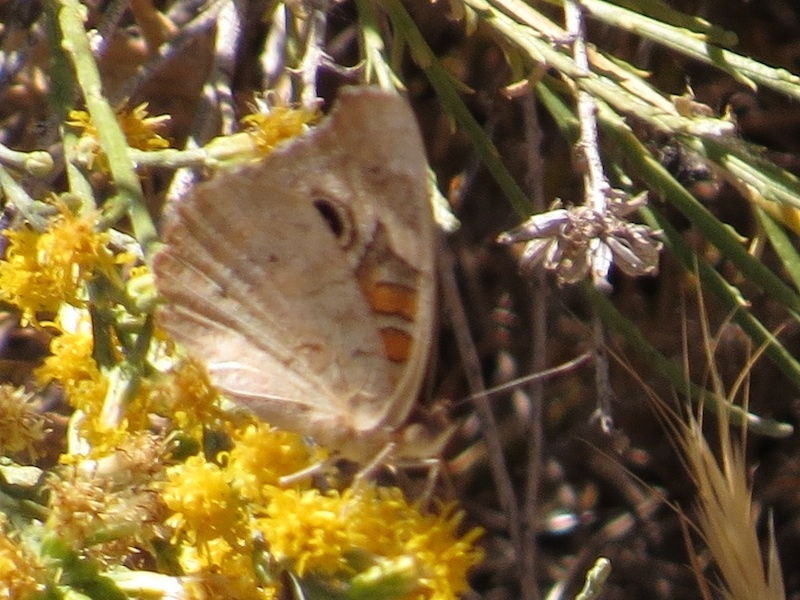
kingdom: Animalia
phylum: Arthropoda
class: Insecta
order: Lepidoptera
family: Nymphalidae
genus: Junonia
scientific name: Junonia grisea
